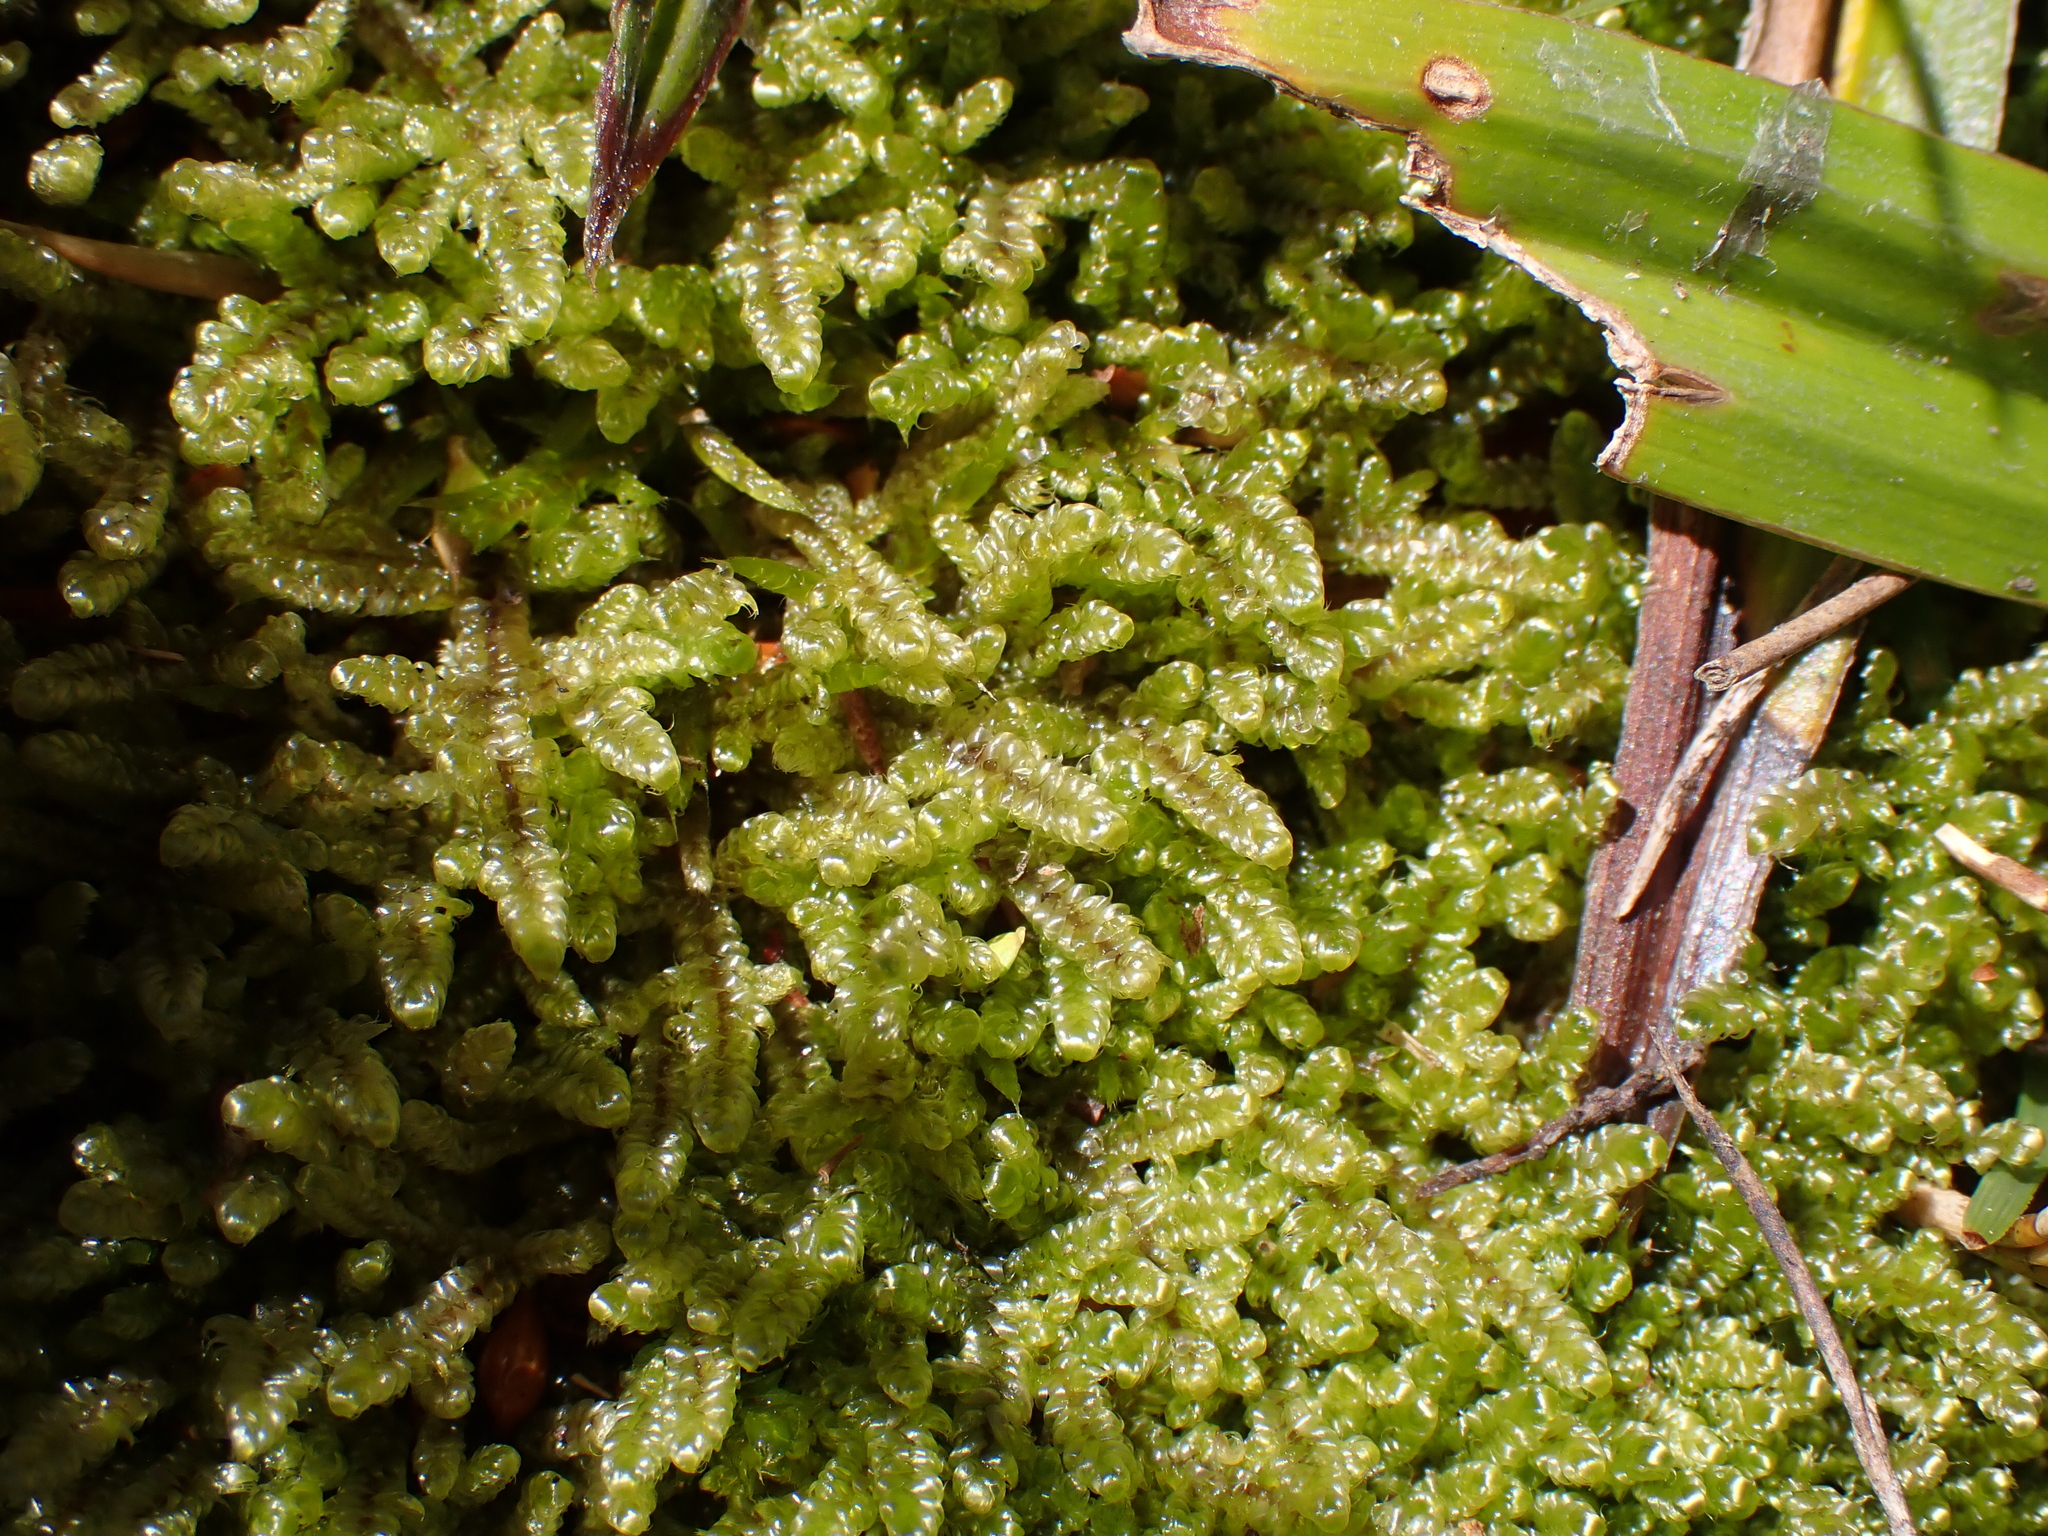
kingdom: Plantae
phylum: Bryophyta
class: Bryopsida
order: Hypnales
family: Hypnaceae
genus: Hypnum
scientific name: Hypnum cupressiforme
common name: Cypress-leaved plait-moss
